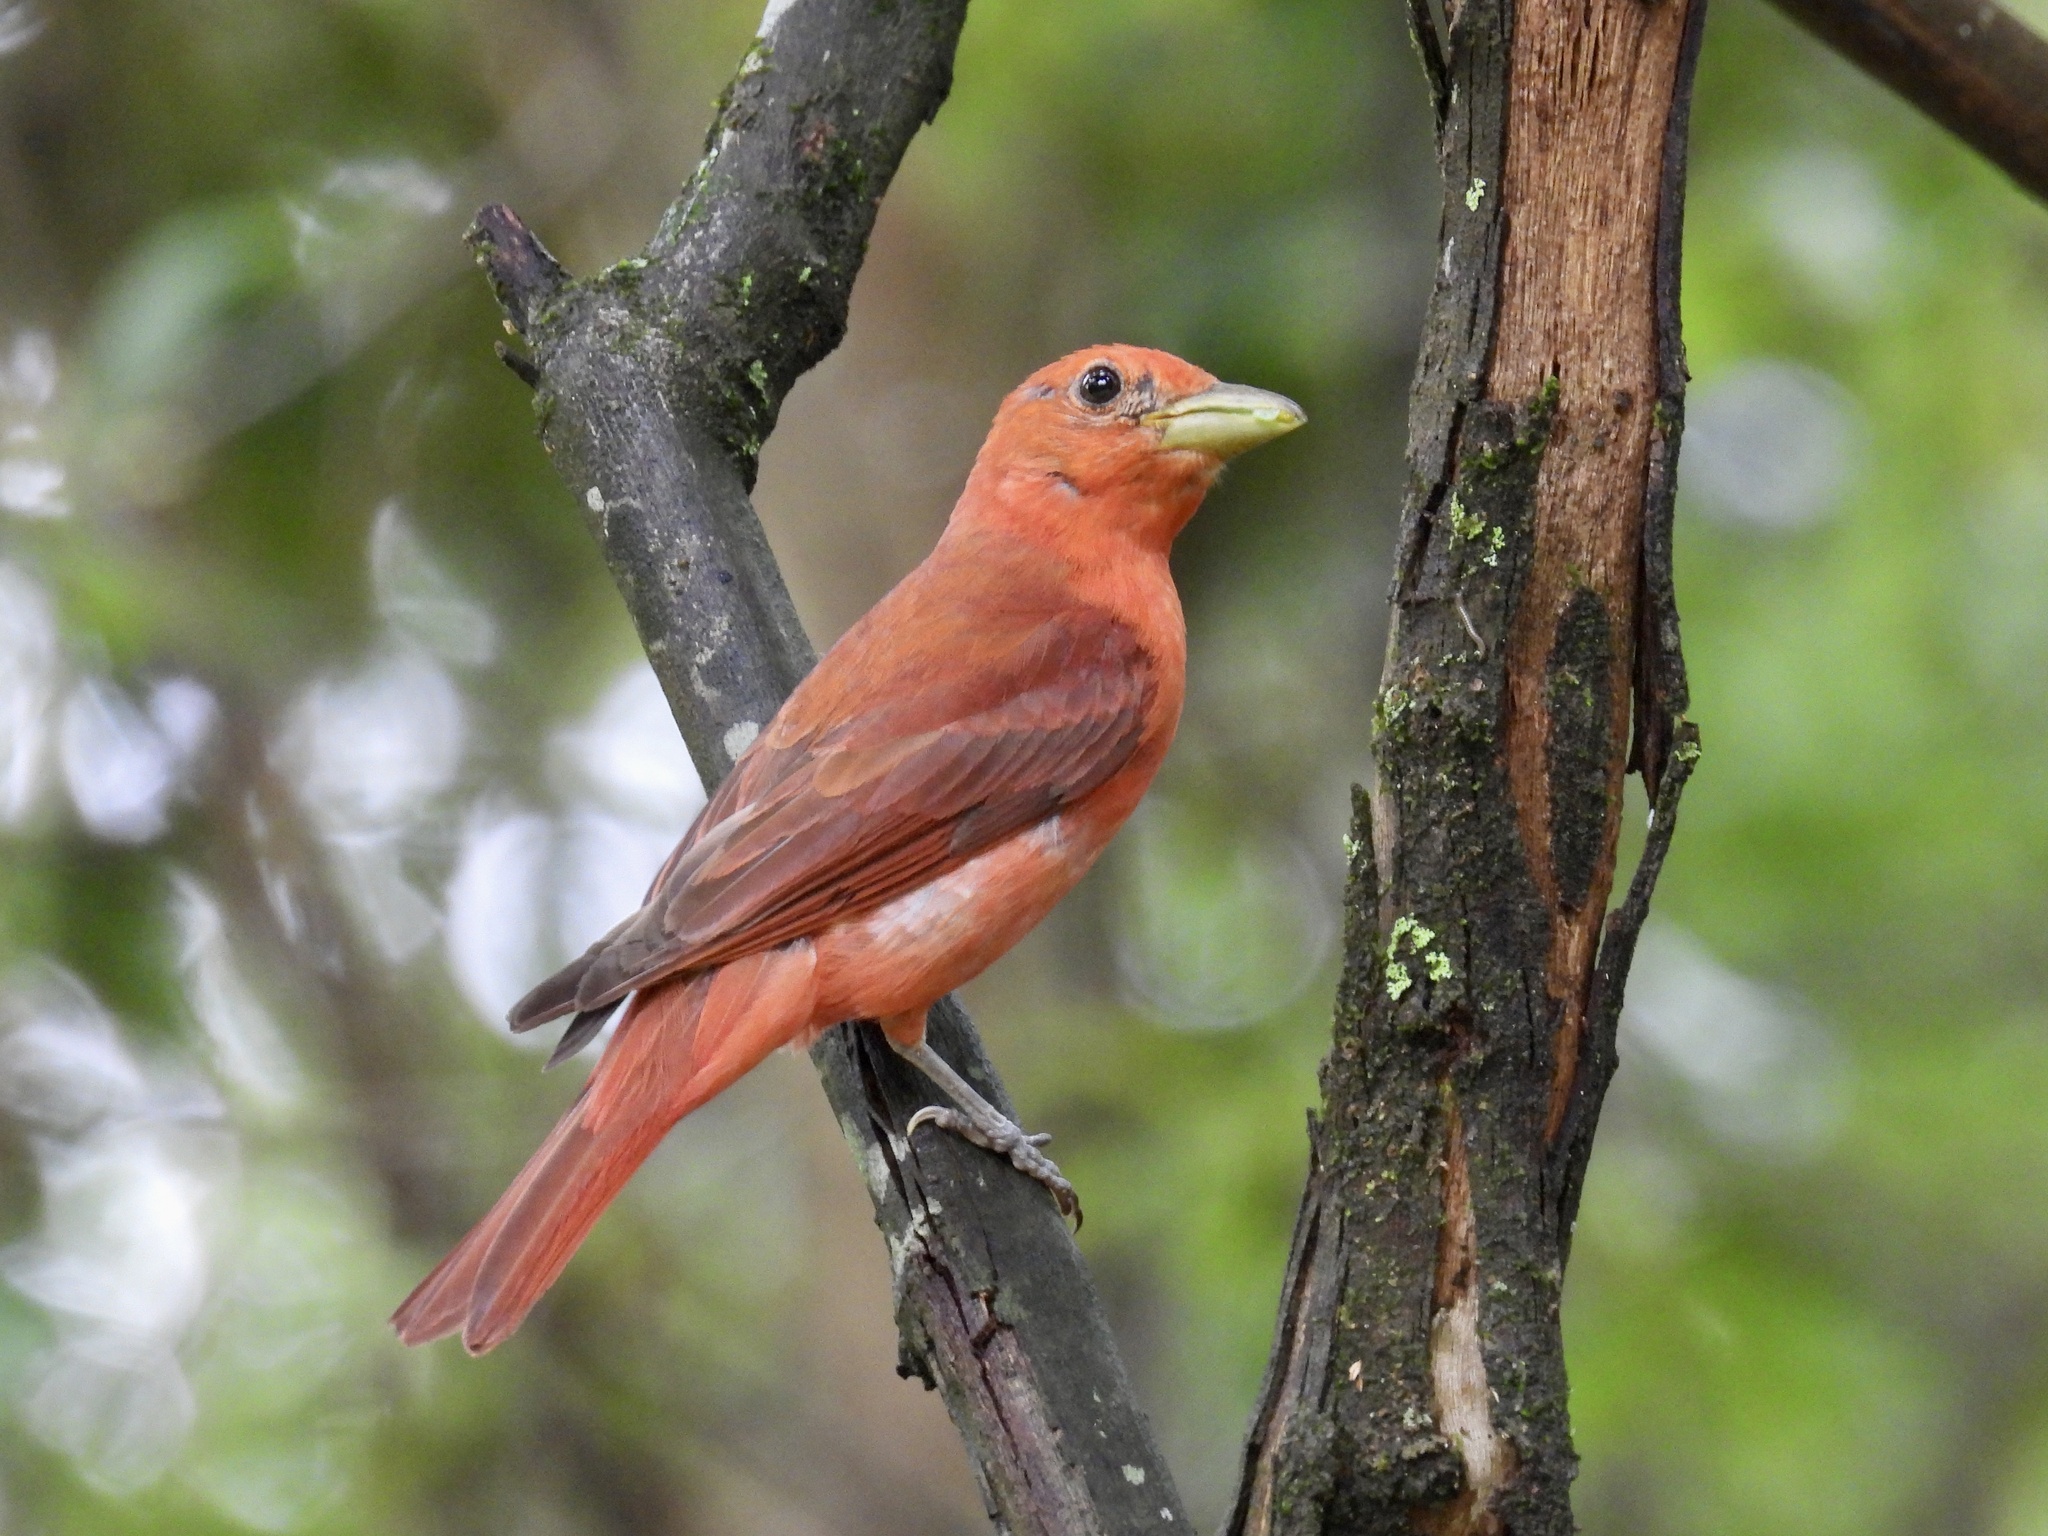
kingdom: Animalia
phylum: Chordata
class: Aves
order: Passeriformes
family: Cardinalidae
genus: Piranga
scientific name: Piranga rubra
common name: Summer tanager
